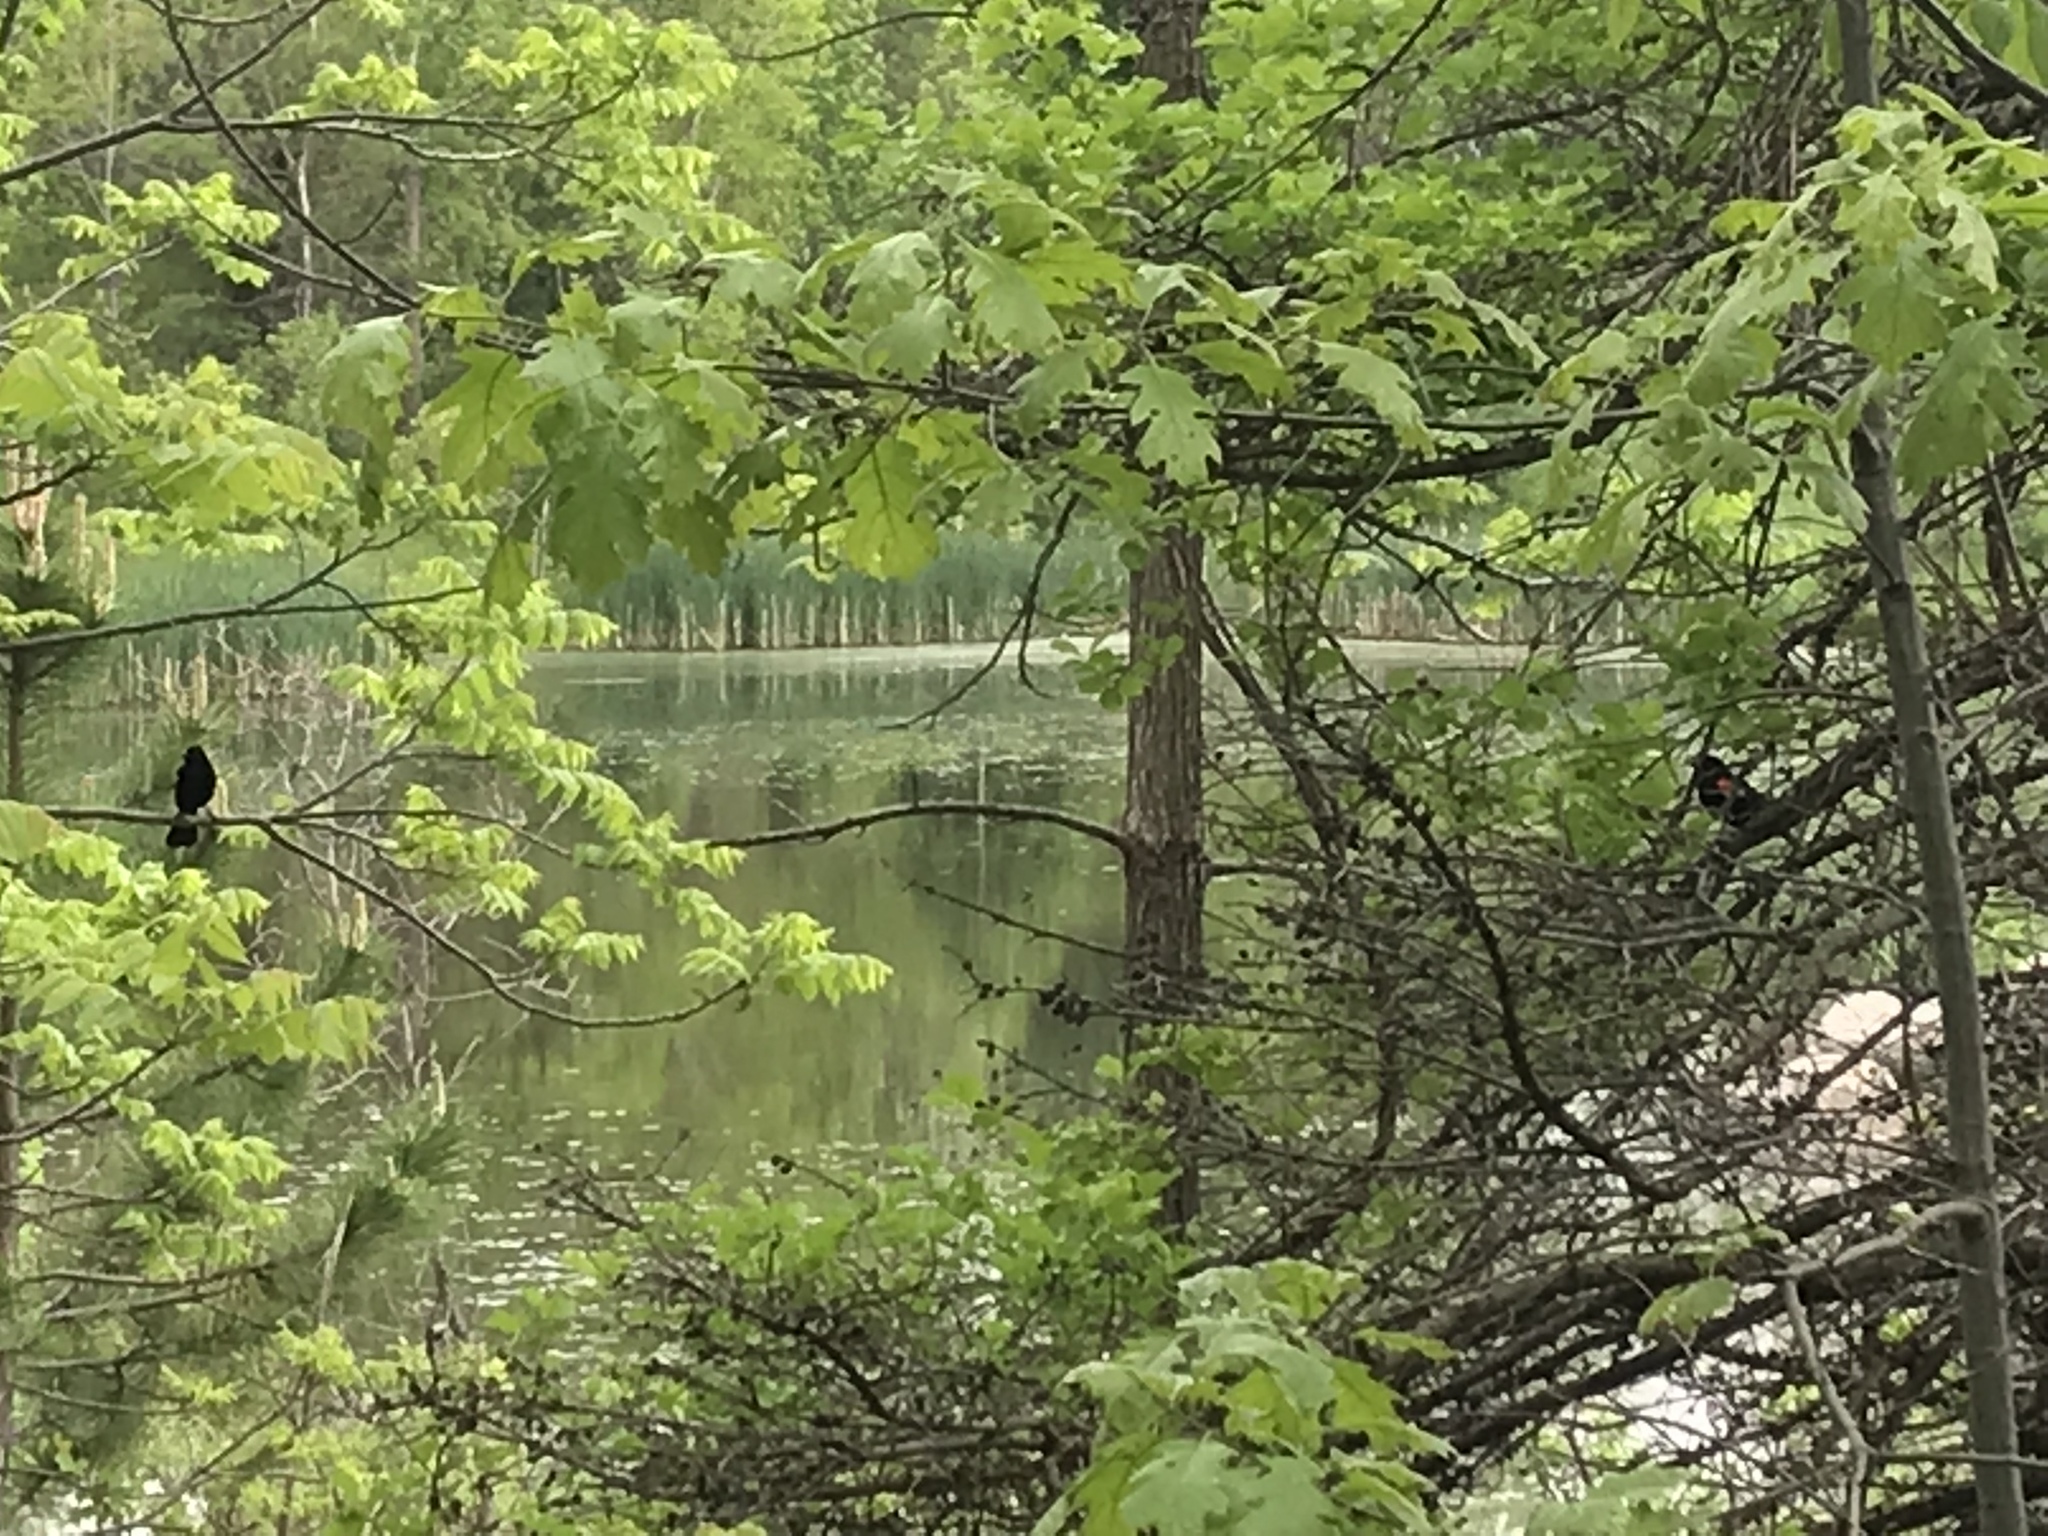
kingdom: Animalia
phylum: Chordata
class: Aves
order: Passeriformes
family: Icteridae
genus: Agelaius
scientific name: Agelaius phoeniceus
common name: Red-winged blackbird
